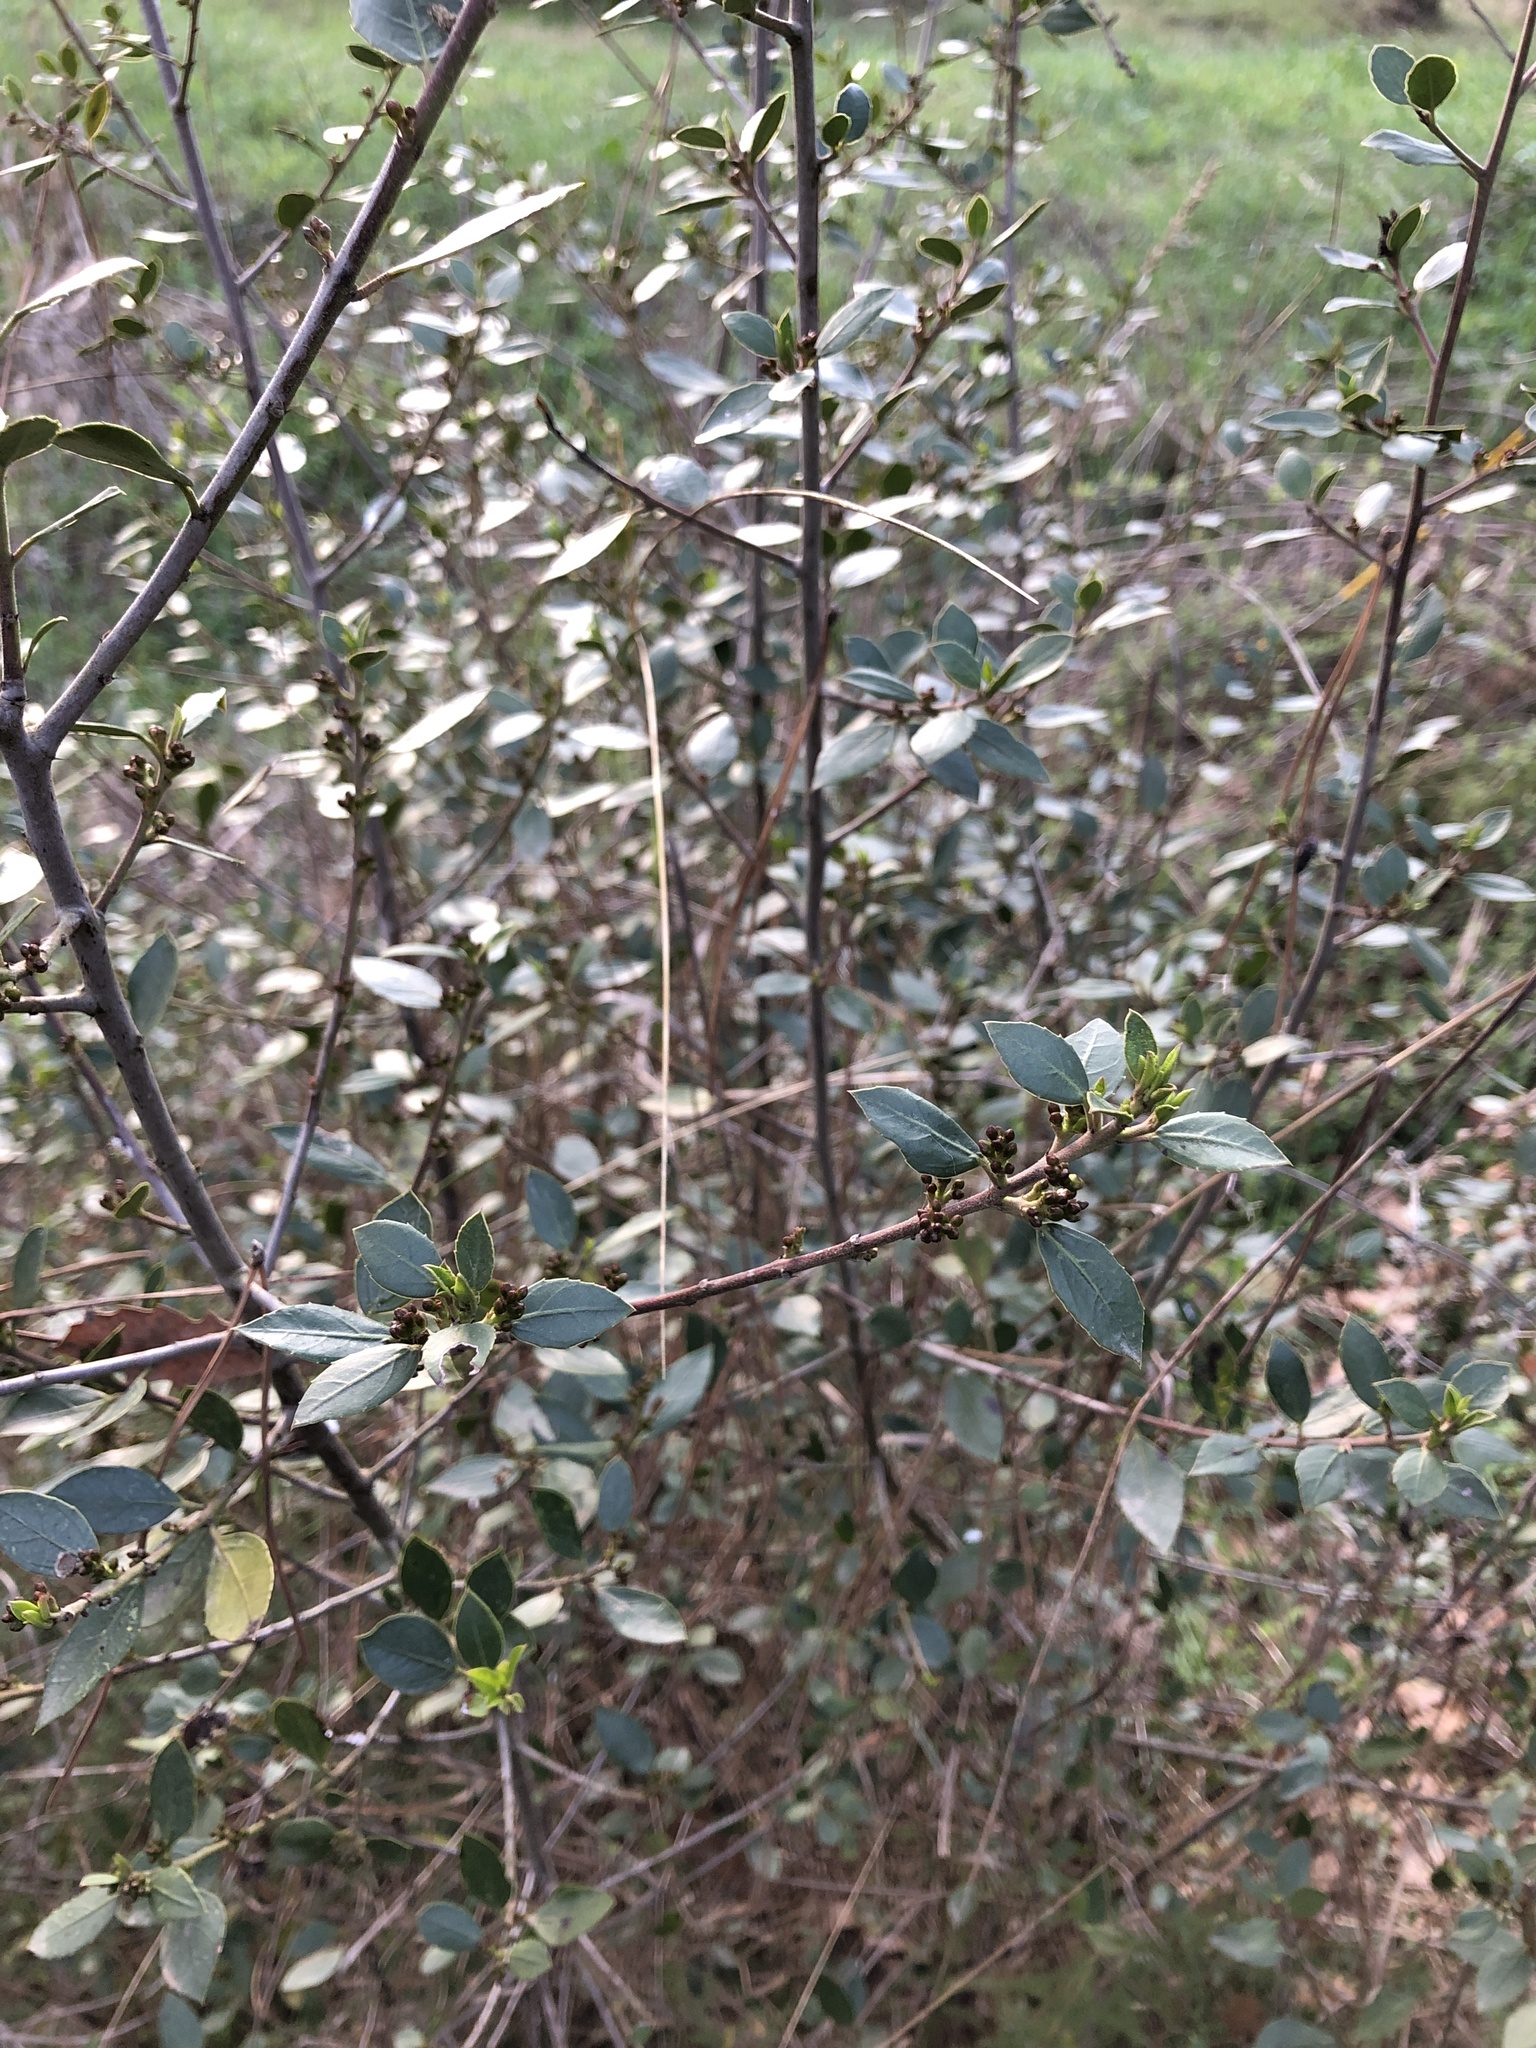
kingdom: Plantae
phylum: Tracheophyta
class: Magnoliopsida
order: Rosales
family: Rhamnaceae
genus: Rhamnus
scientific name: Rhamnus alaternus
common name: Mediterranean buckthorn
